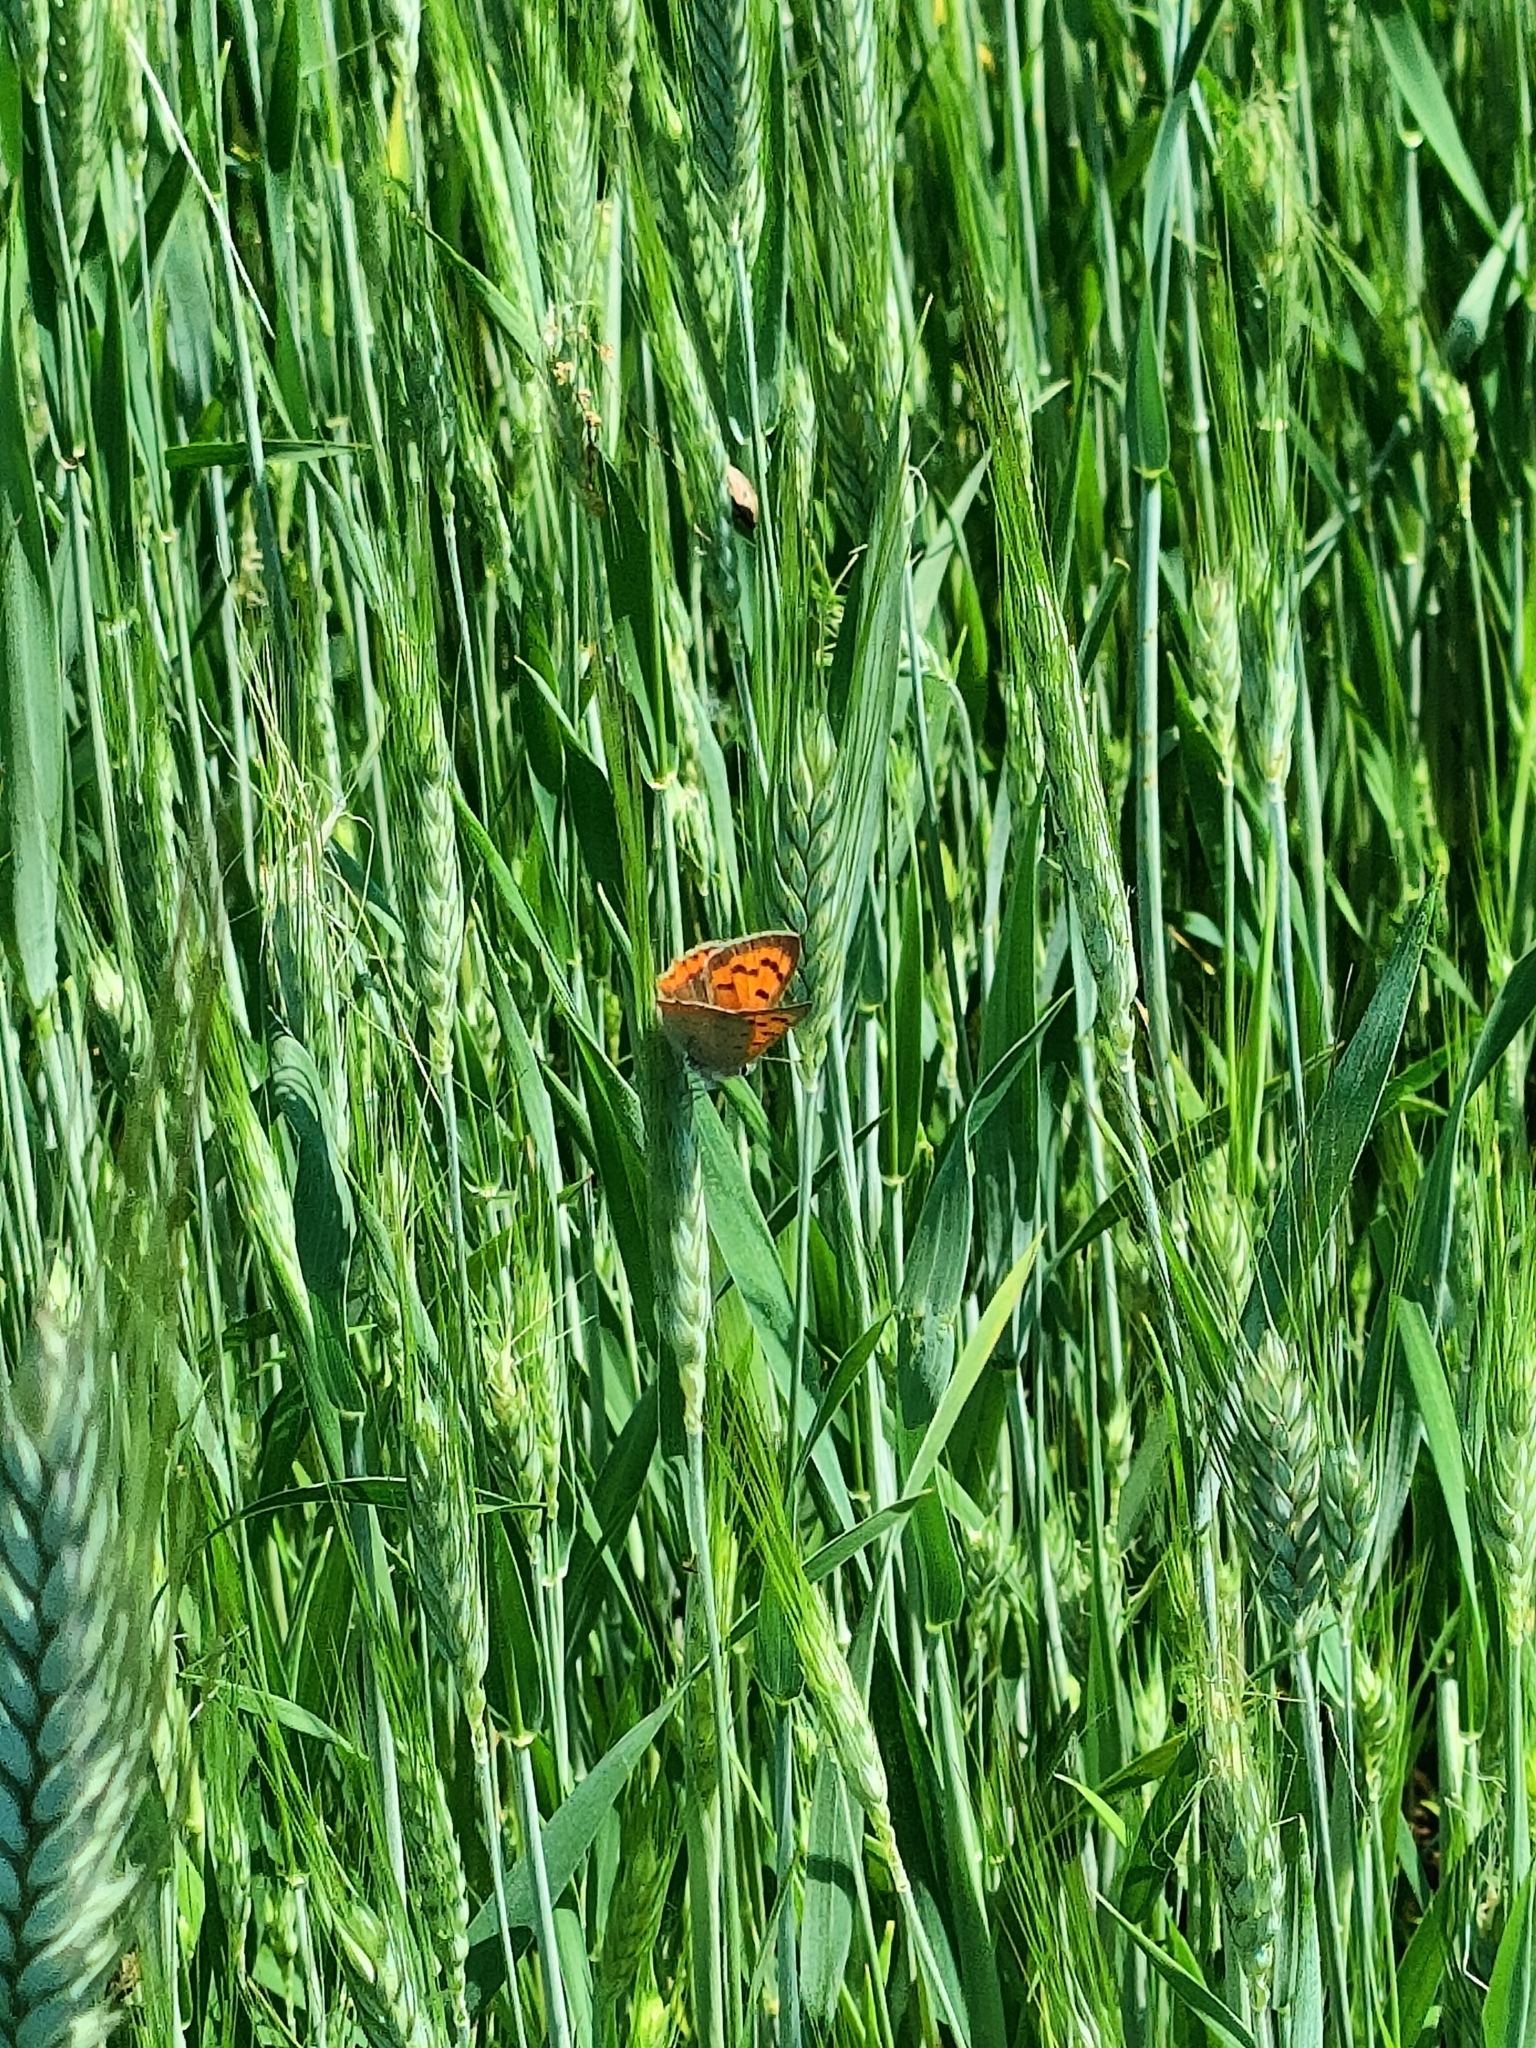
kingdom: Animalia
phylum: Arthropoda
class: Insecta
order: Lepidoptera
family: Lycaenidae
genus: Lycaena
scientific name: Lycaena phlaeas
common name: Small copper
